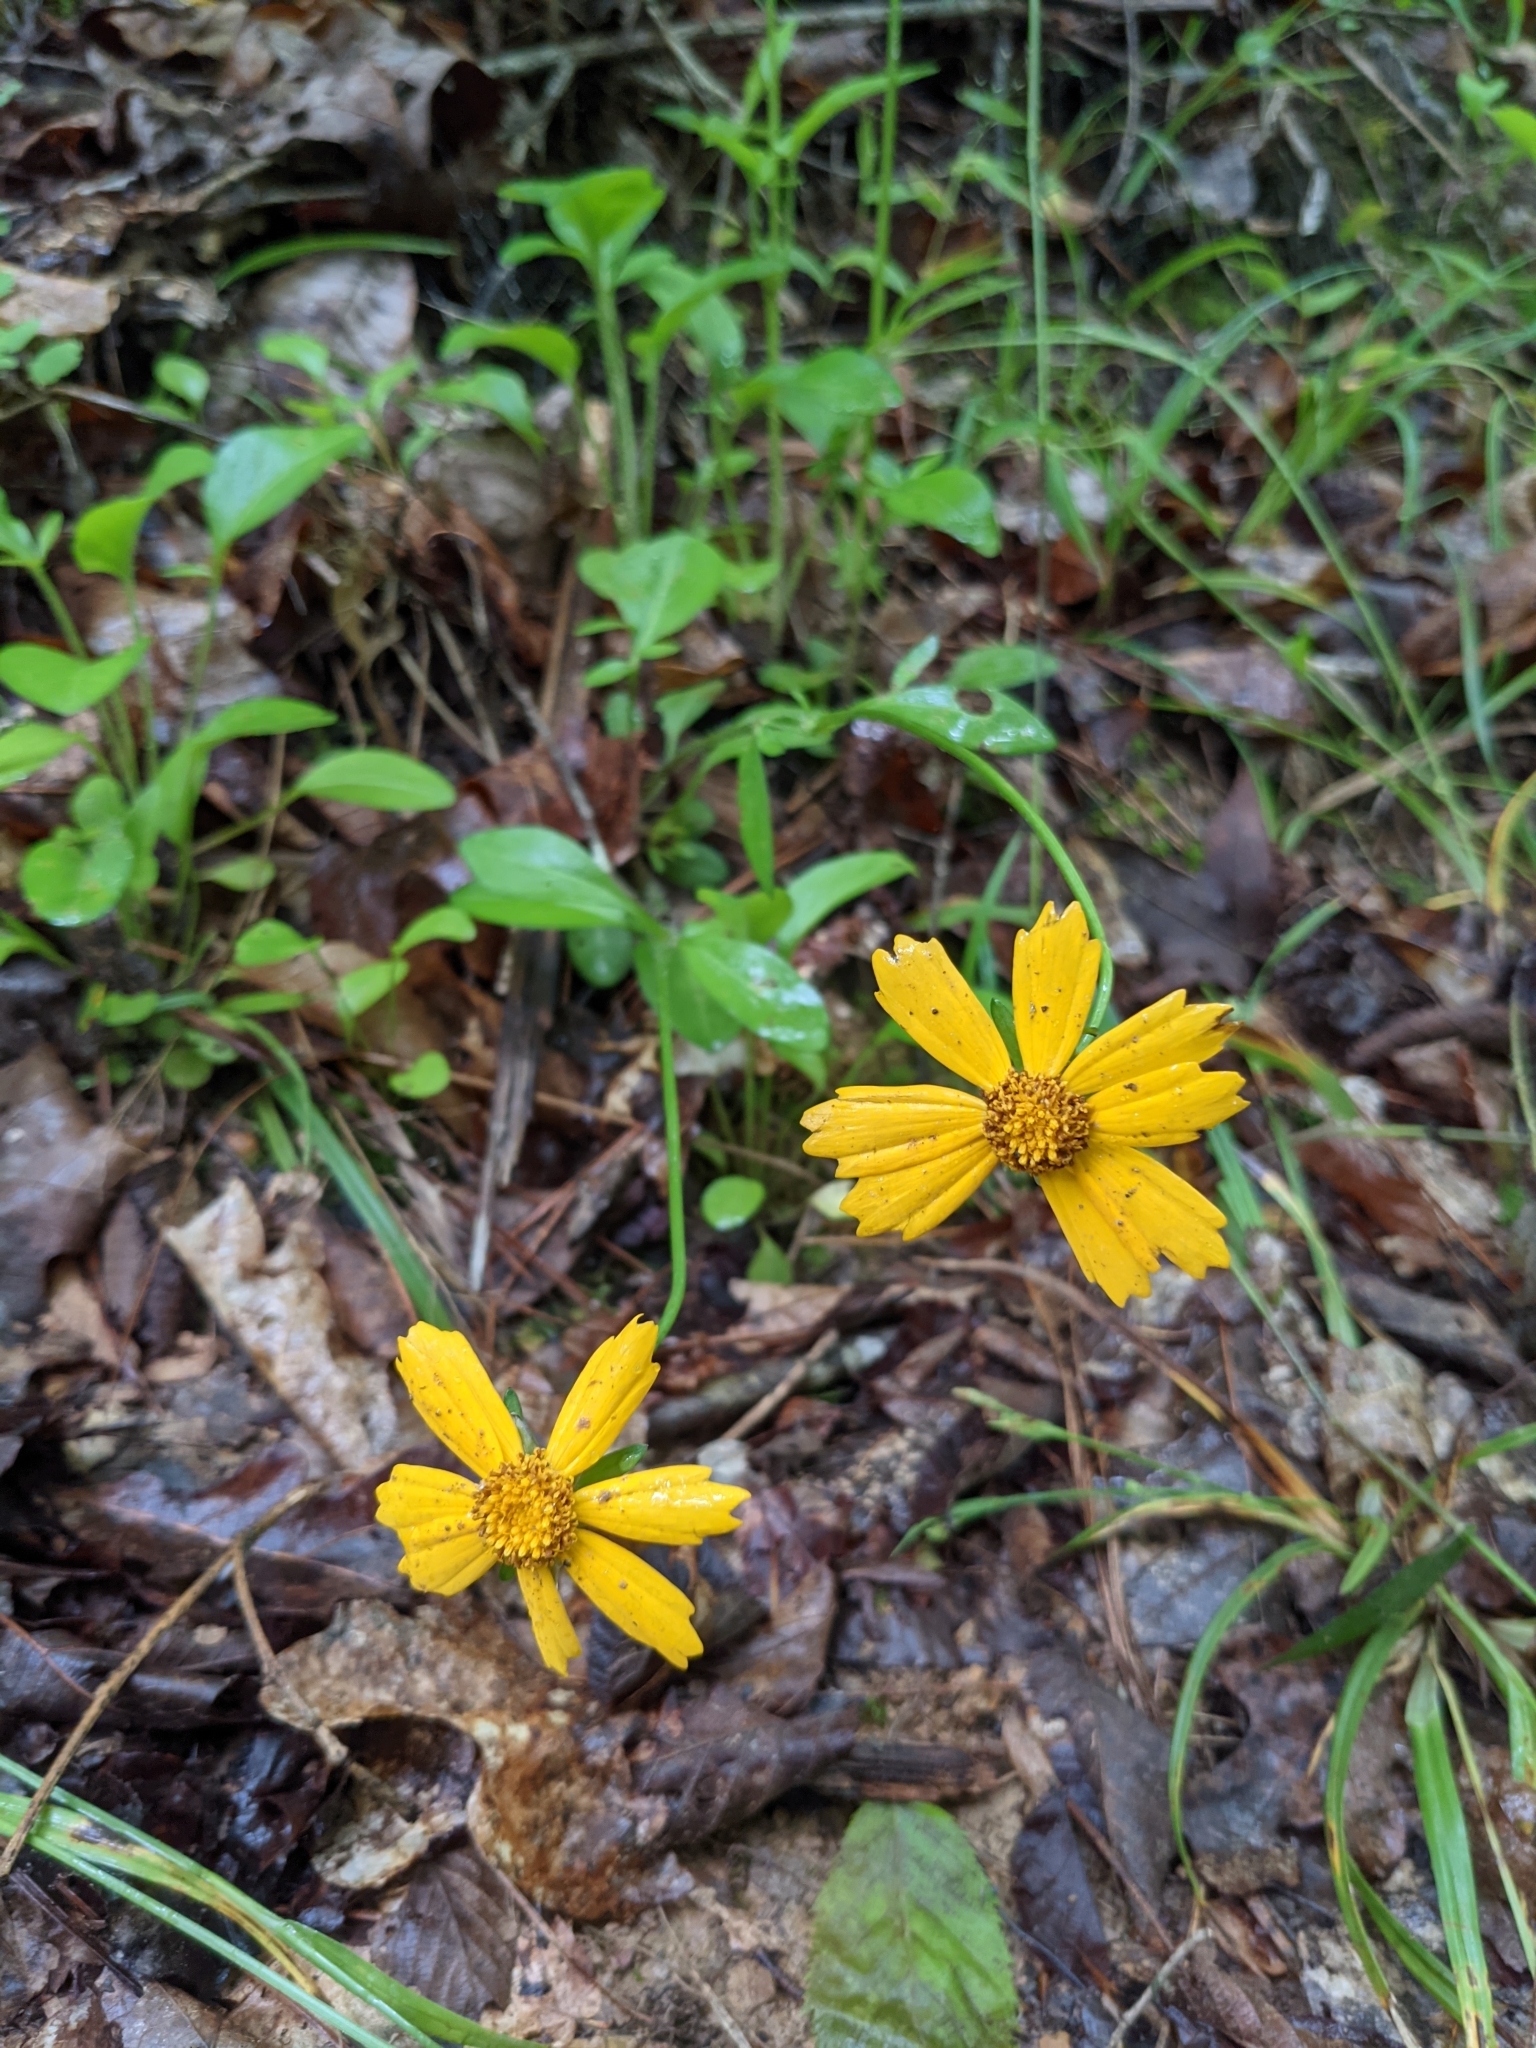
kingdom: Plantae
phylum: Tracheophyta
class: Magnoliopsida
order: Asterales
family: Asteraceae
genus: Coreopsis
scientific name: Coreopsis auriculata
